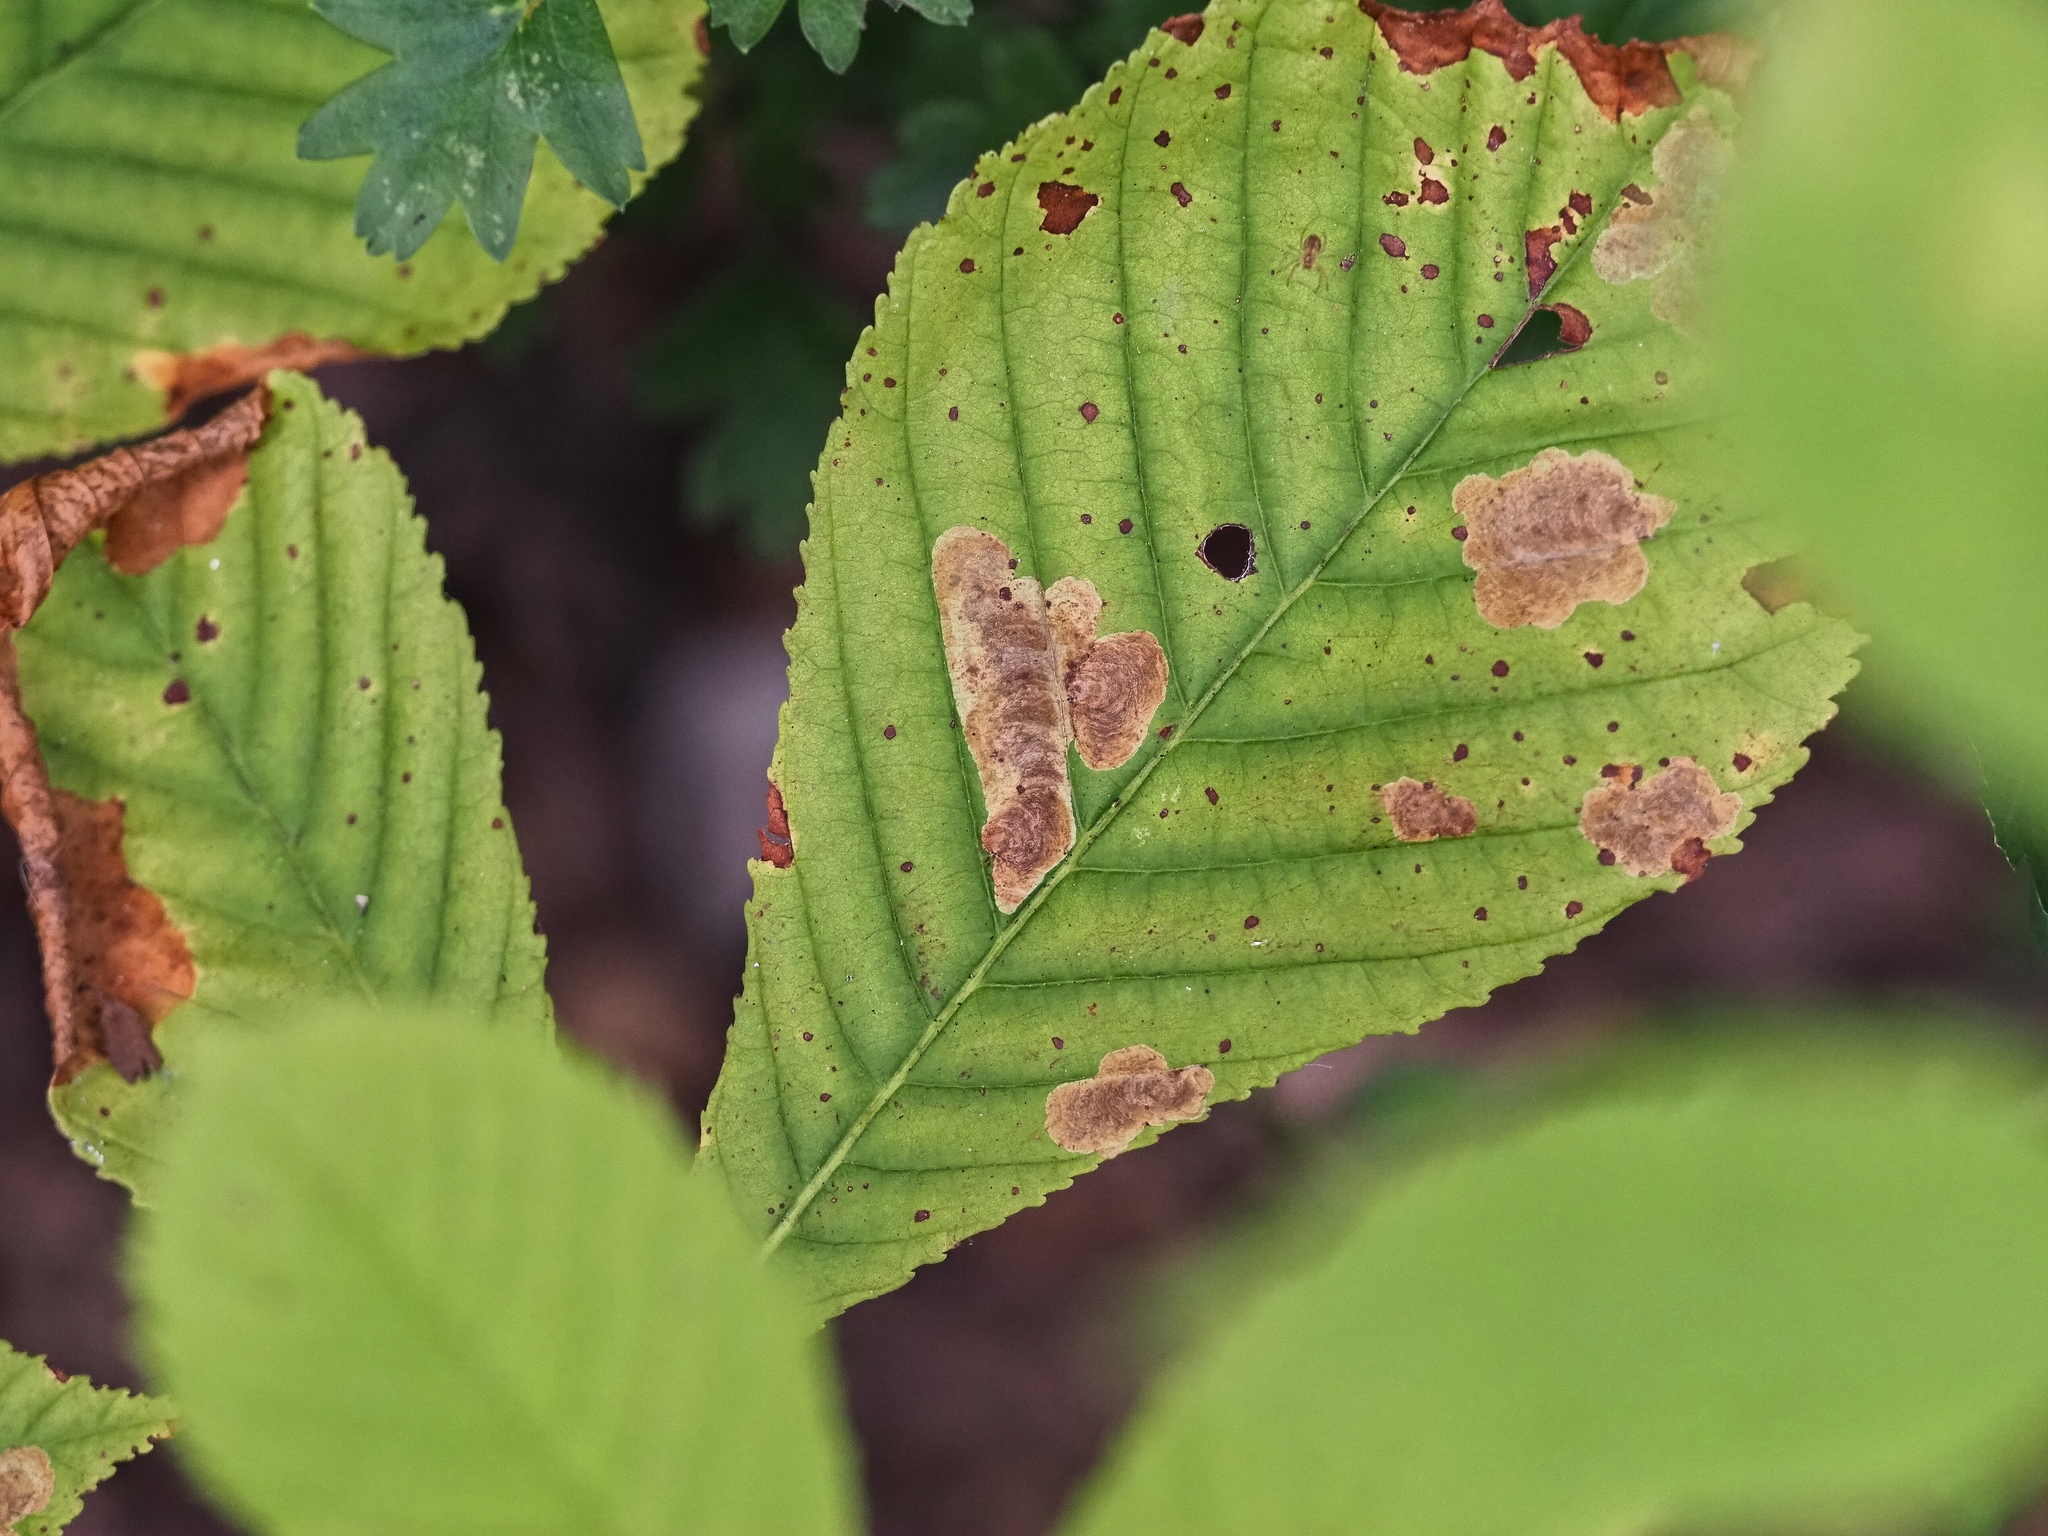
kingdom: Animalia
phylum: Arthropoda
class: Insecta
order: Lepidoptera
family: Gracillariidae
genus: Cameraria
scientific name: Cameraria ohridella
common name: Horse-chestnut leaf-miner
